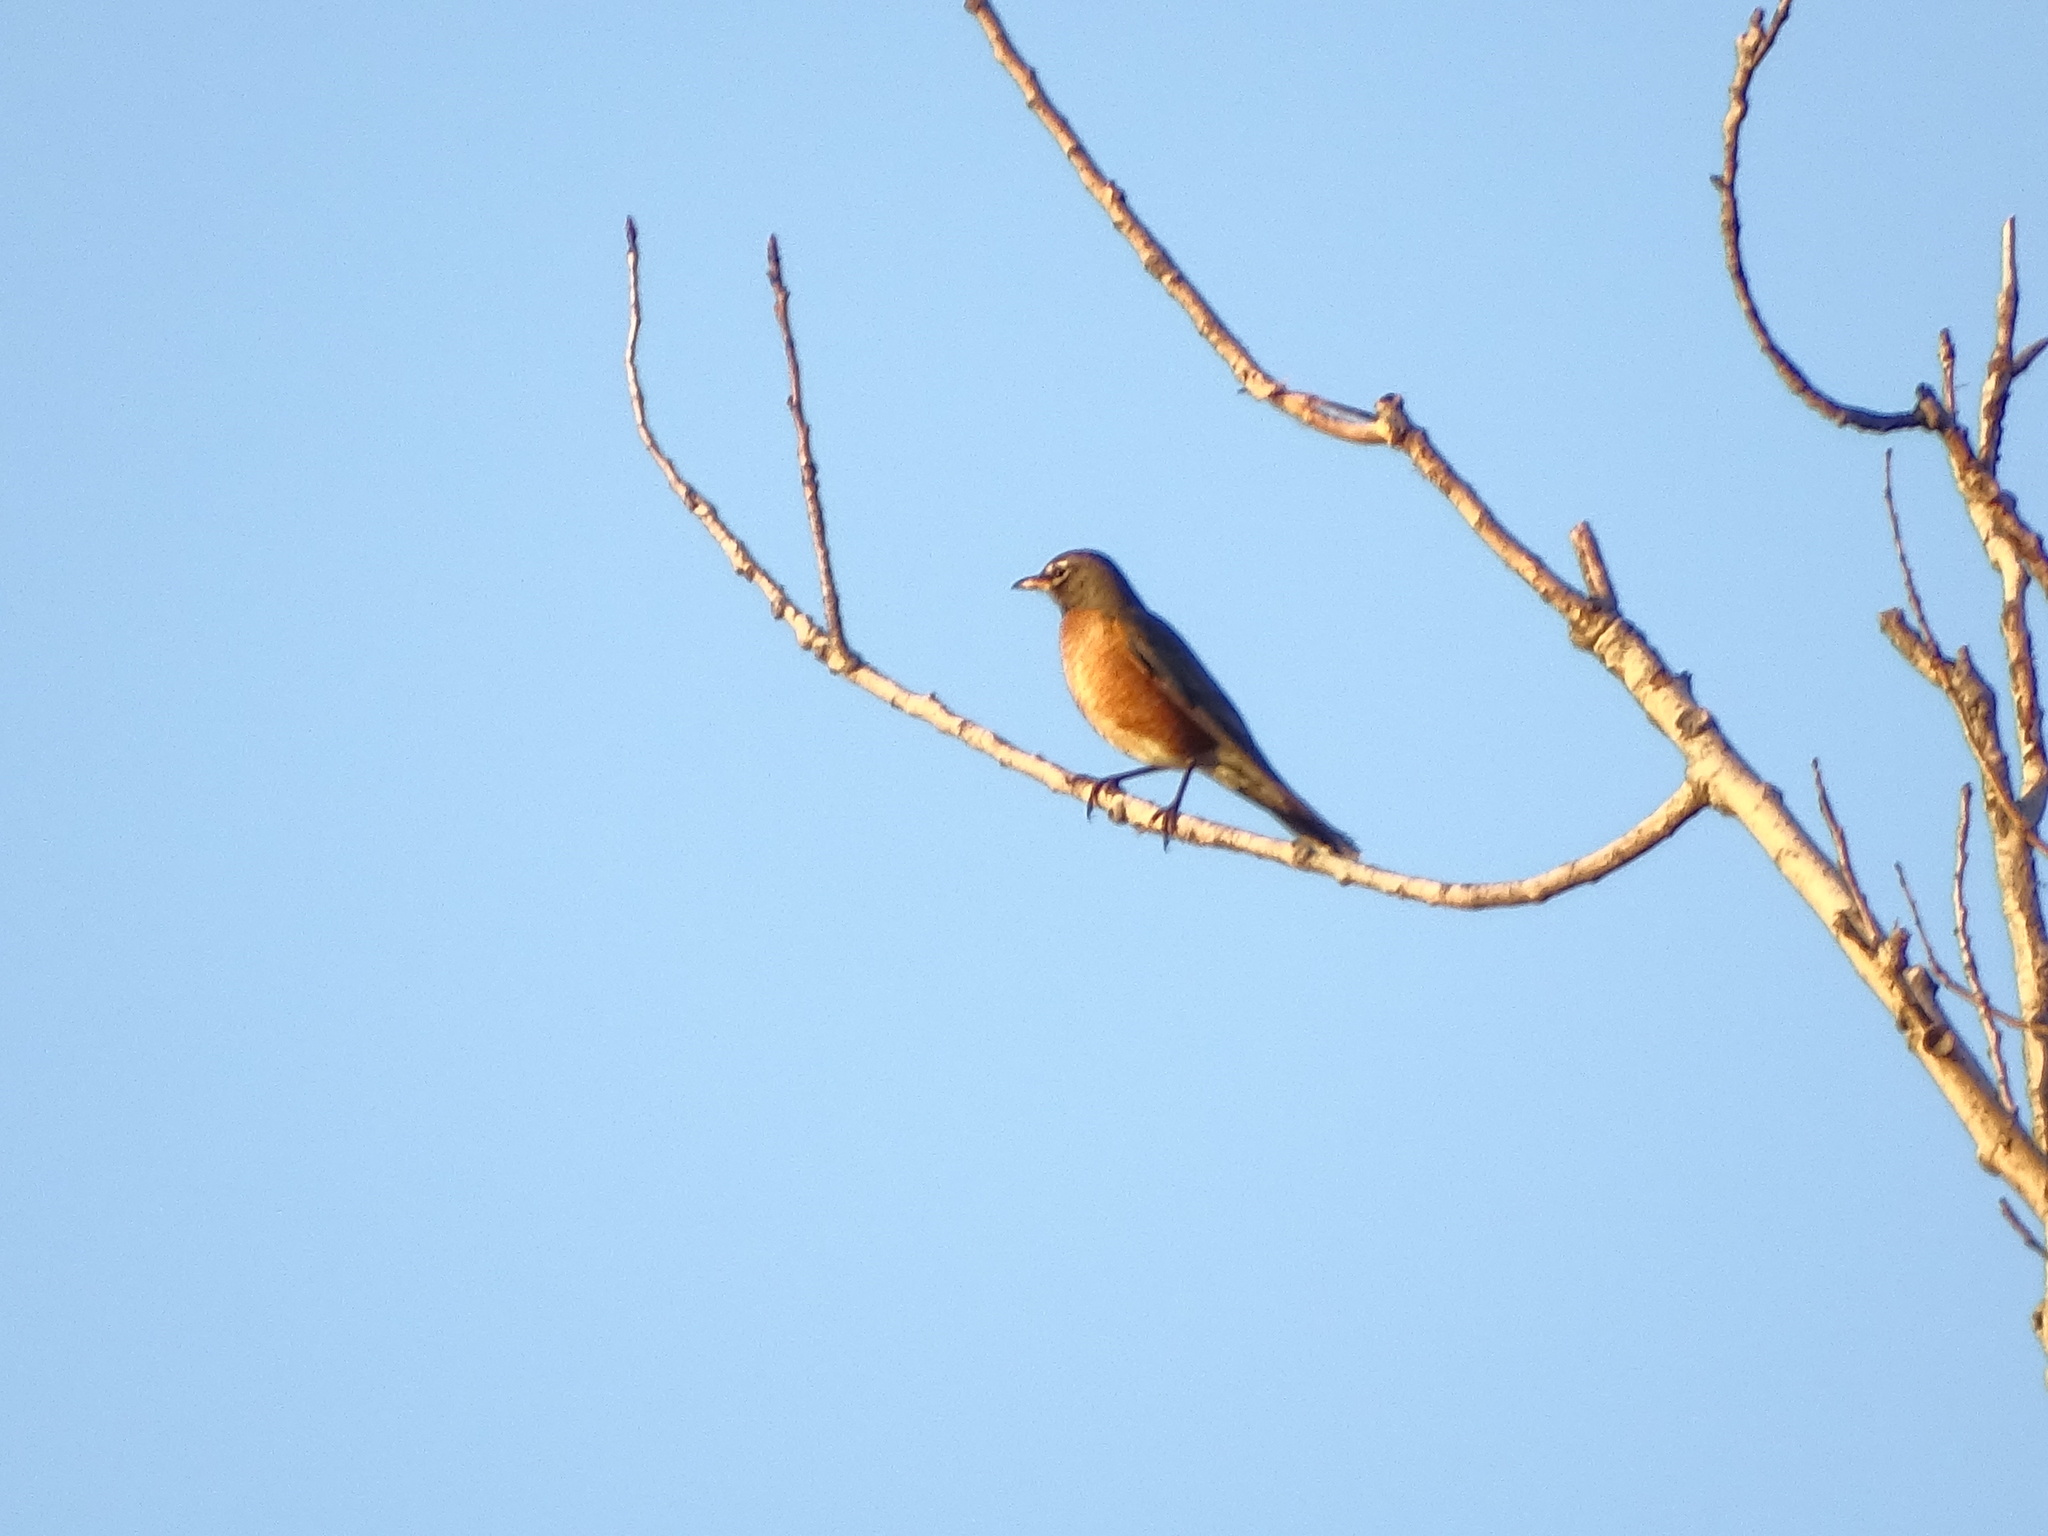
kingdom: Animalia
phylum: Chordata
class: Aves
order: Passeriformes
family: Turdidae
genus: Turdus
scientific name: Turdus migratorius
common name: American robin
